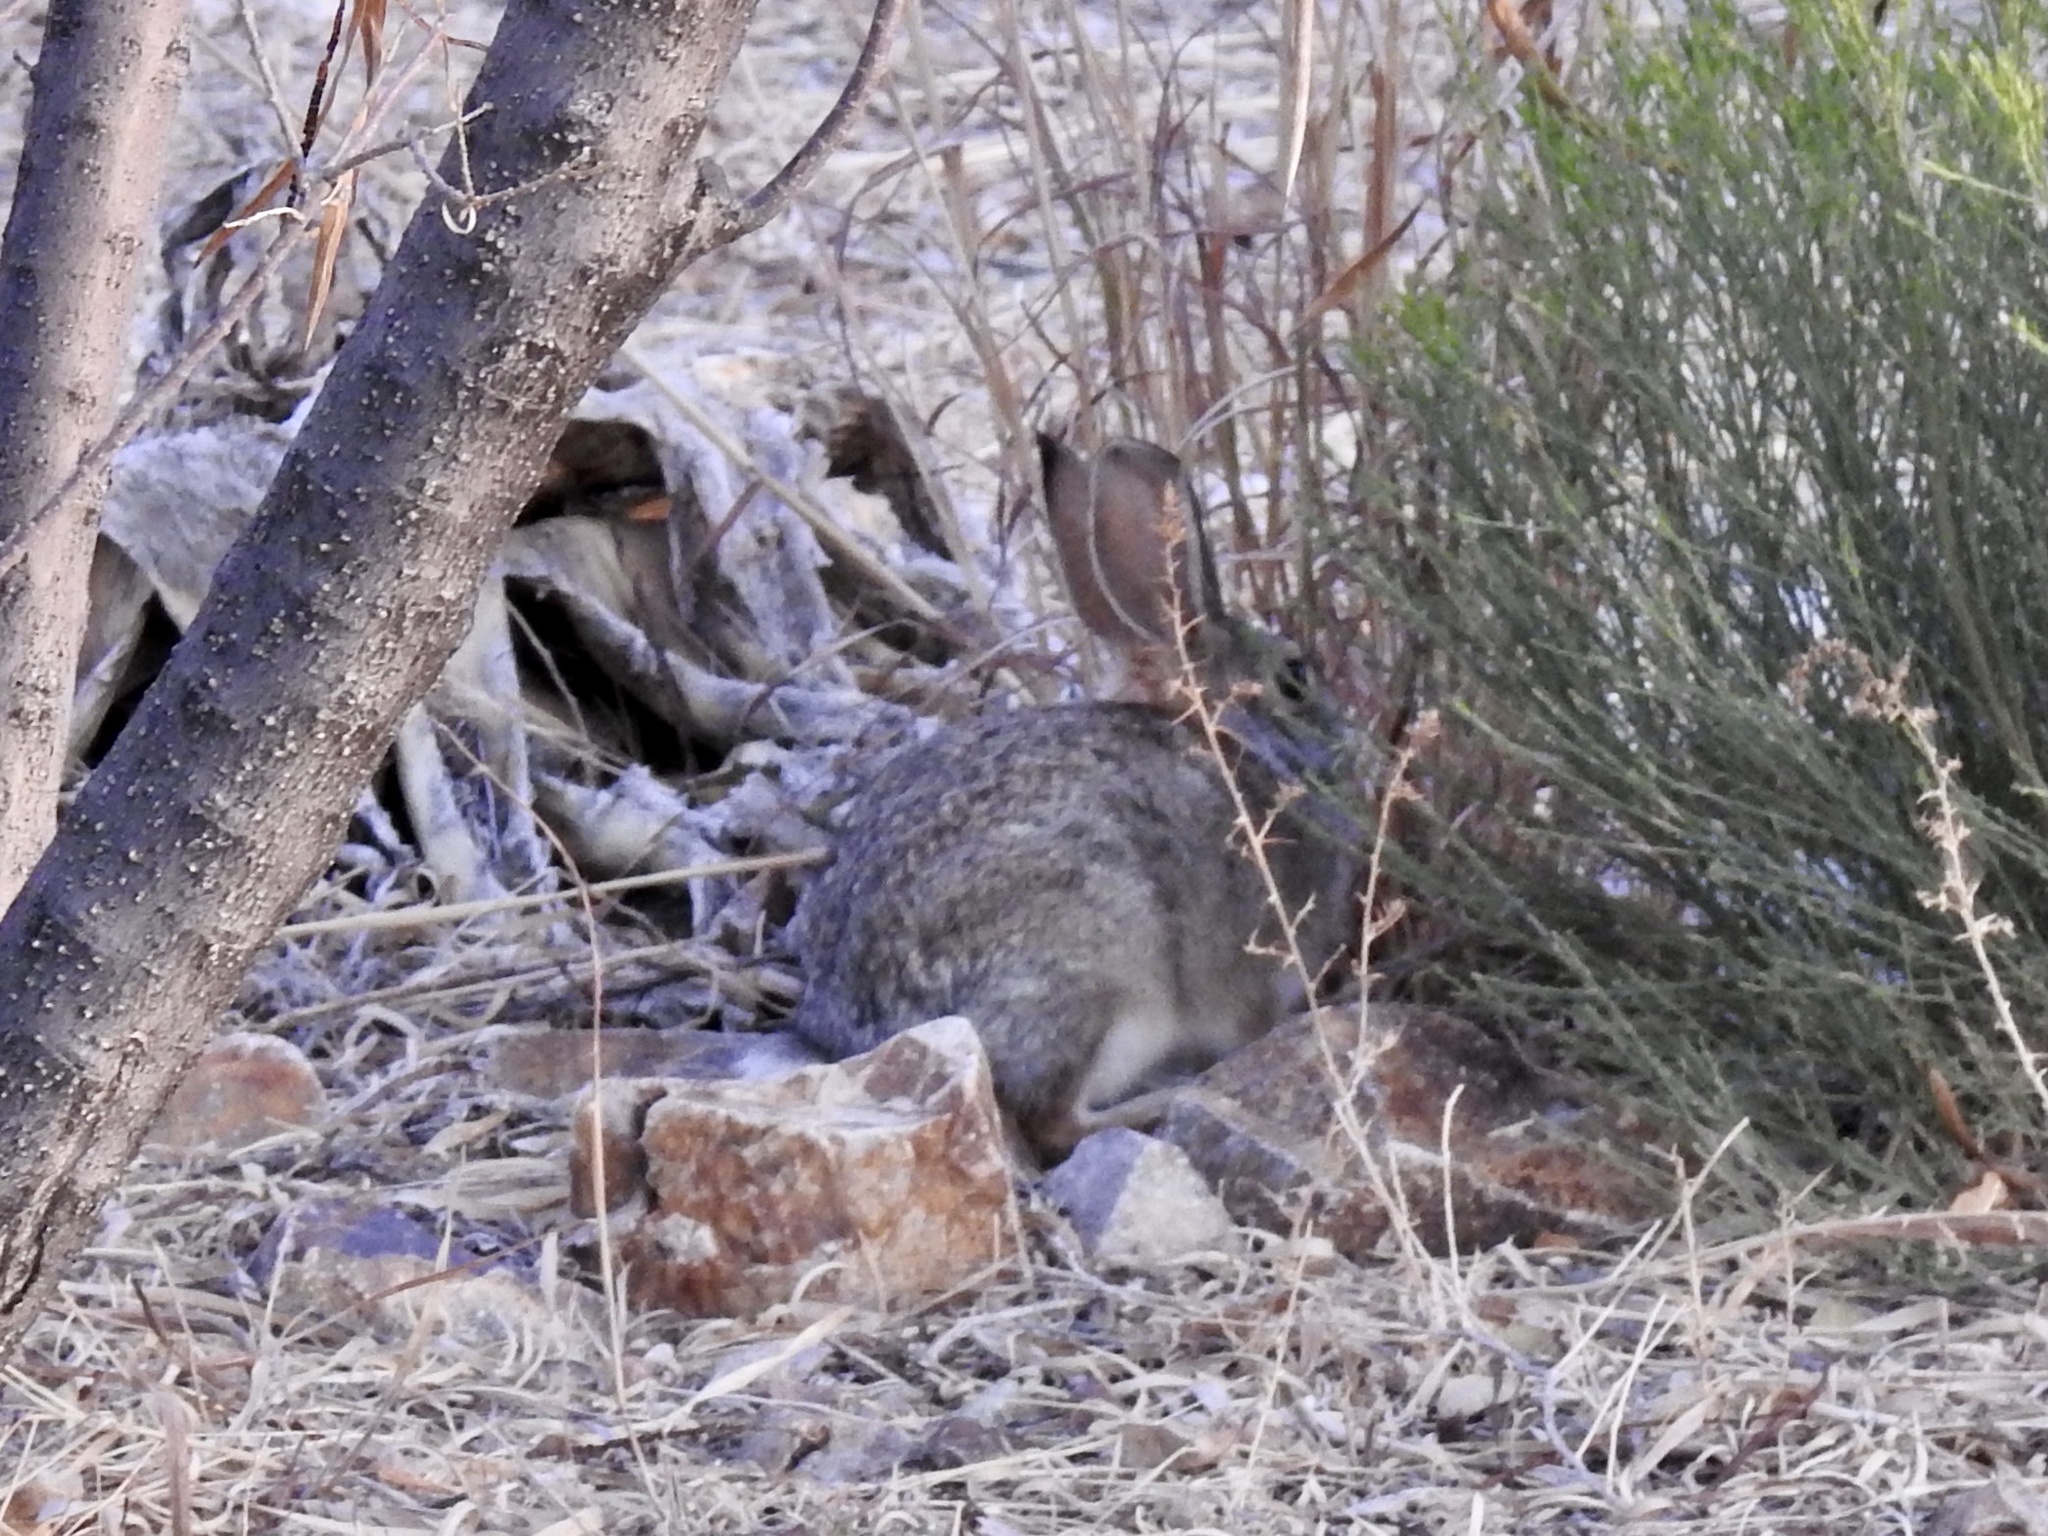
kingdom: Animalia
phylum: Chordata
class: Mammalia
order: Lagomorpha
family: Leporidae
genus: Sylvilagus
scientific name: Sylvilagus audubonii
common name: Desert cottontail
